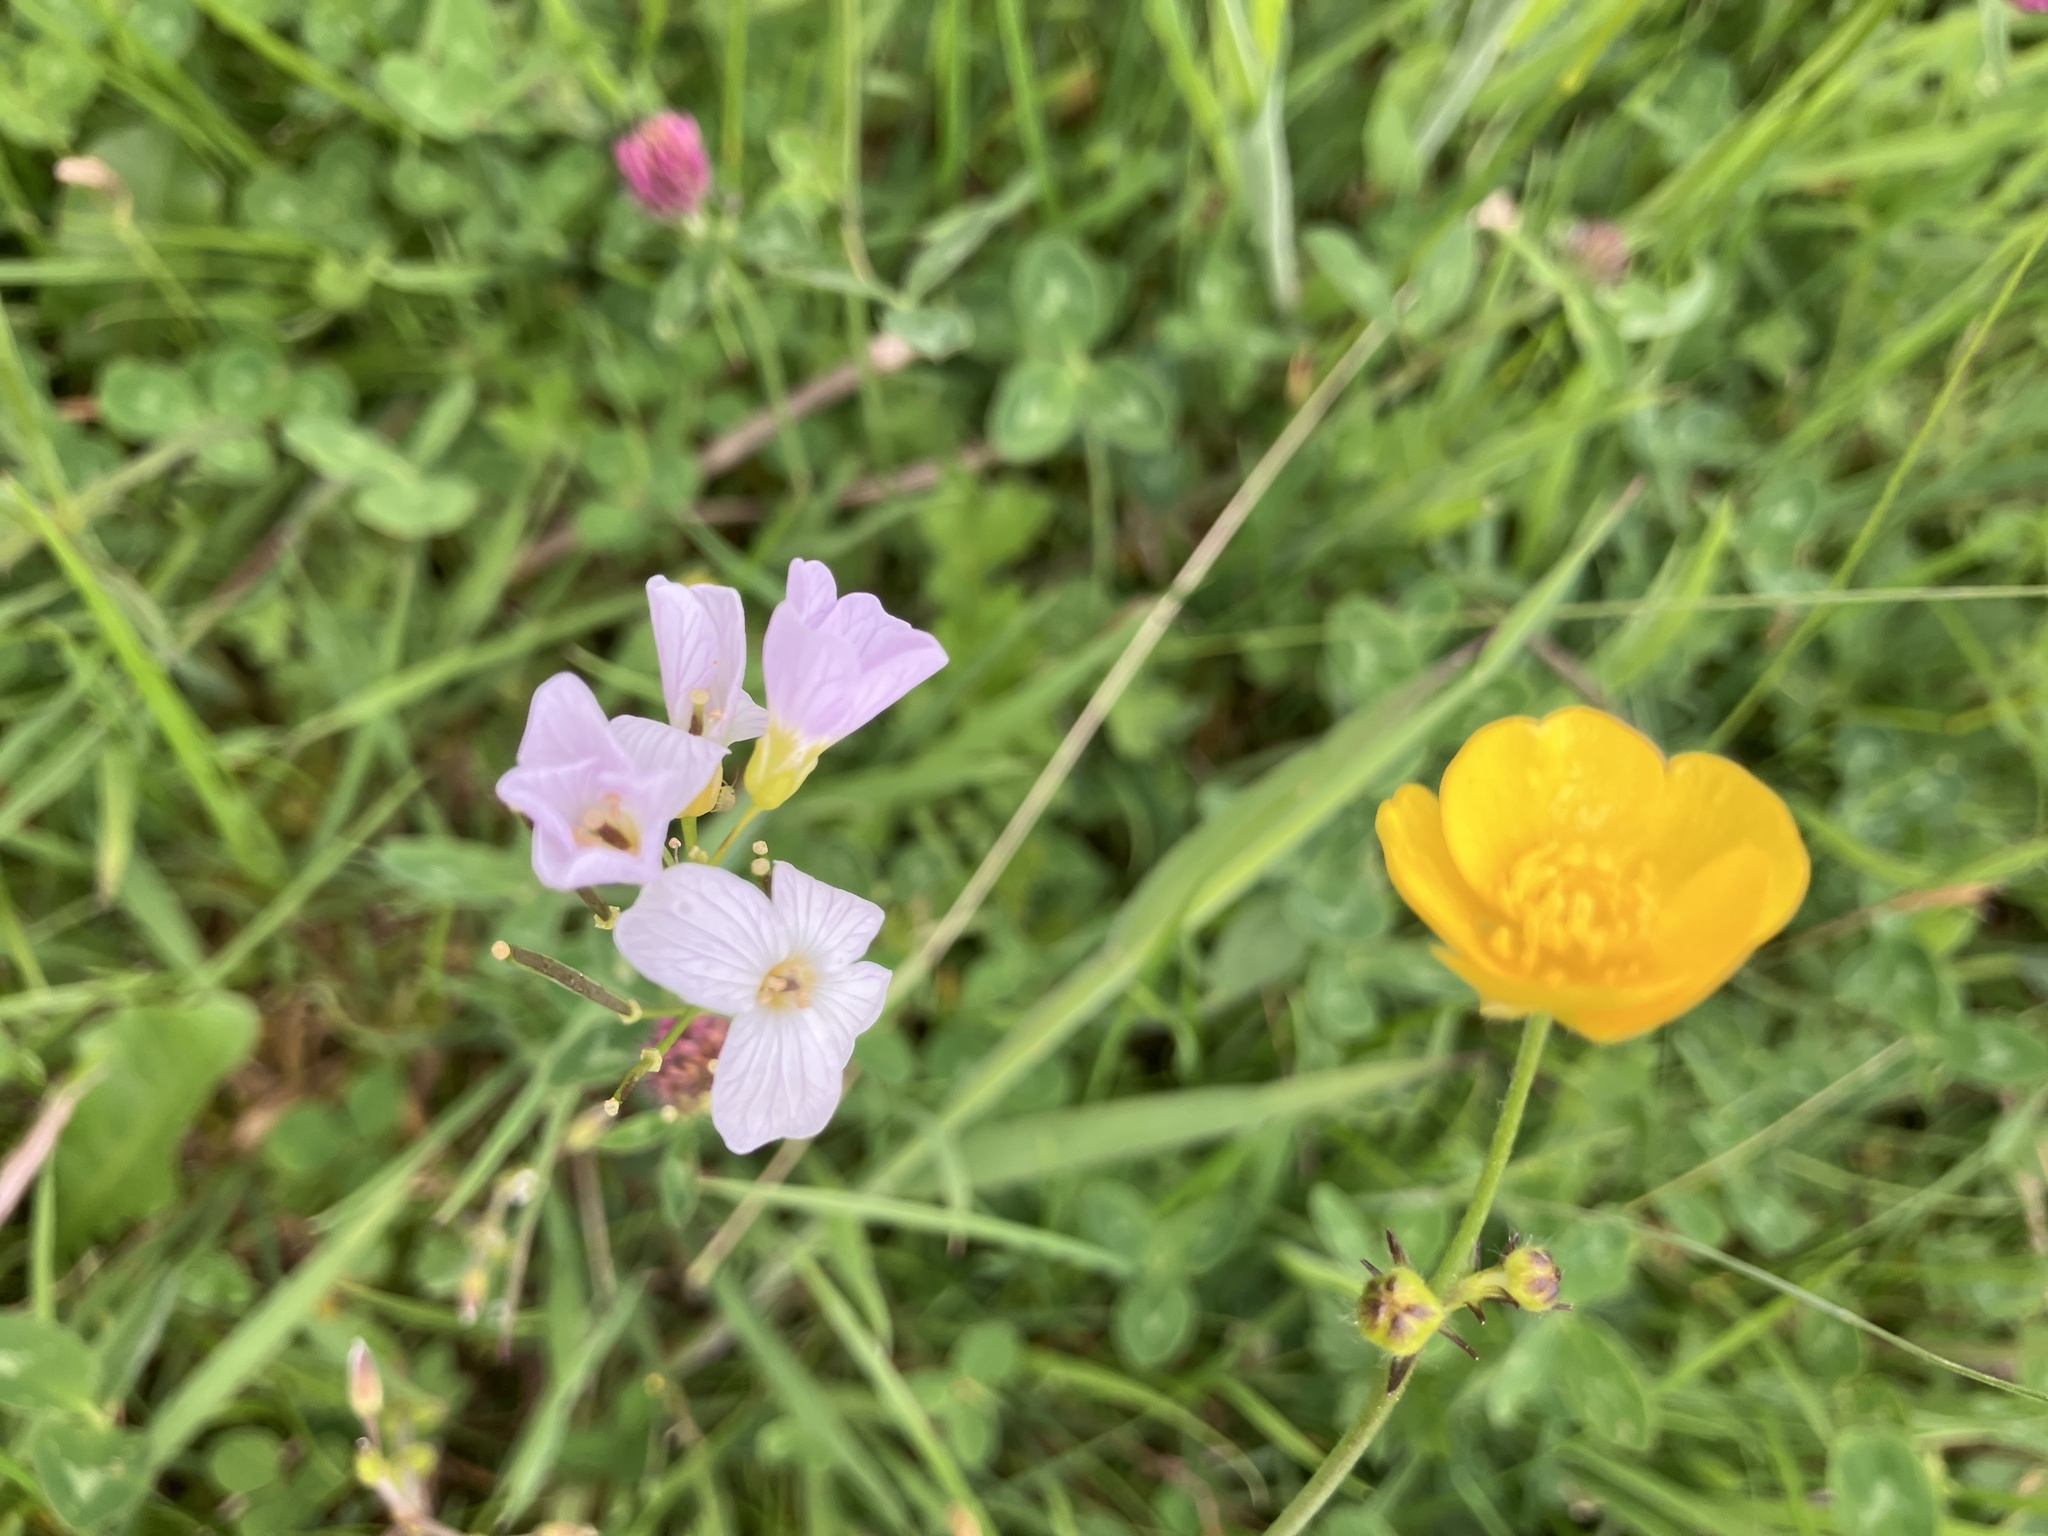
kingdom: Plantae
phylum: Tracheophyta
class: Magnoliopsida
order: Brassicales
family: Brassicaceae
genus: Cardamine
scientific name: Cardamine pratensis
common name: Cuckoo flower
